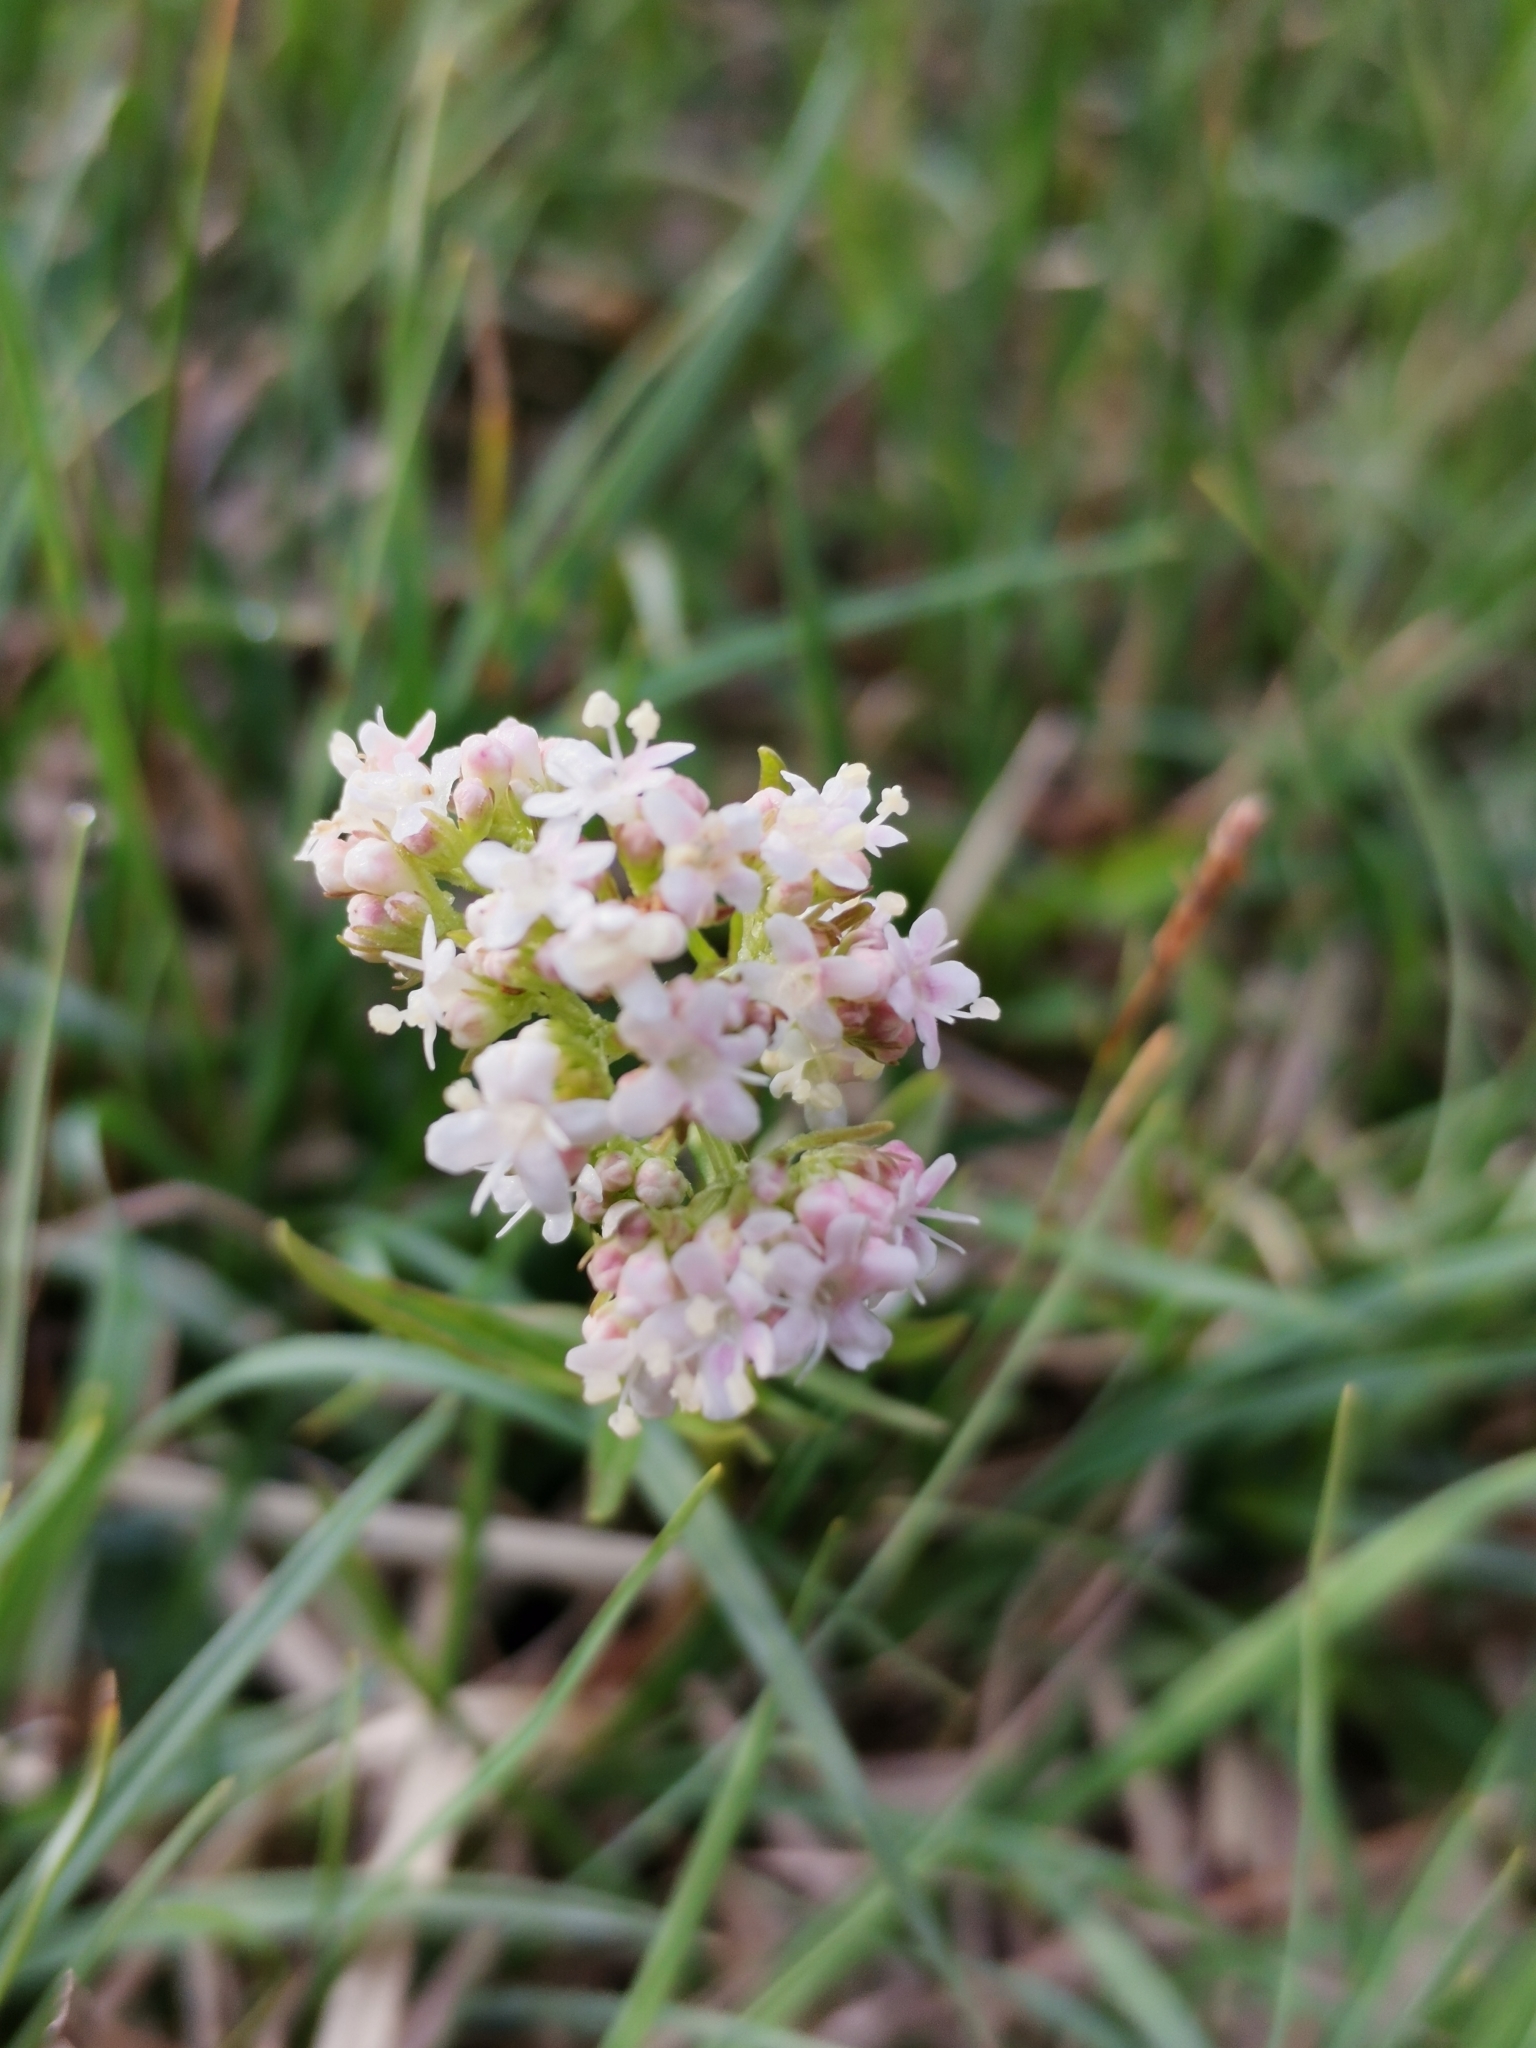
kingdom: Plantae
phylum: Tracheophyta
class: Magnoliopsida
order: Dipsacales
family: Caprifoliaceae
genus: Valeriana
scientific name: Valeriana dioica
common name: Marsh valerian
